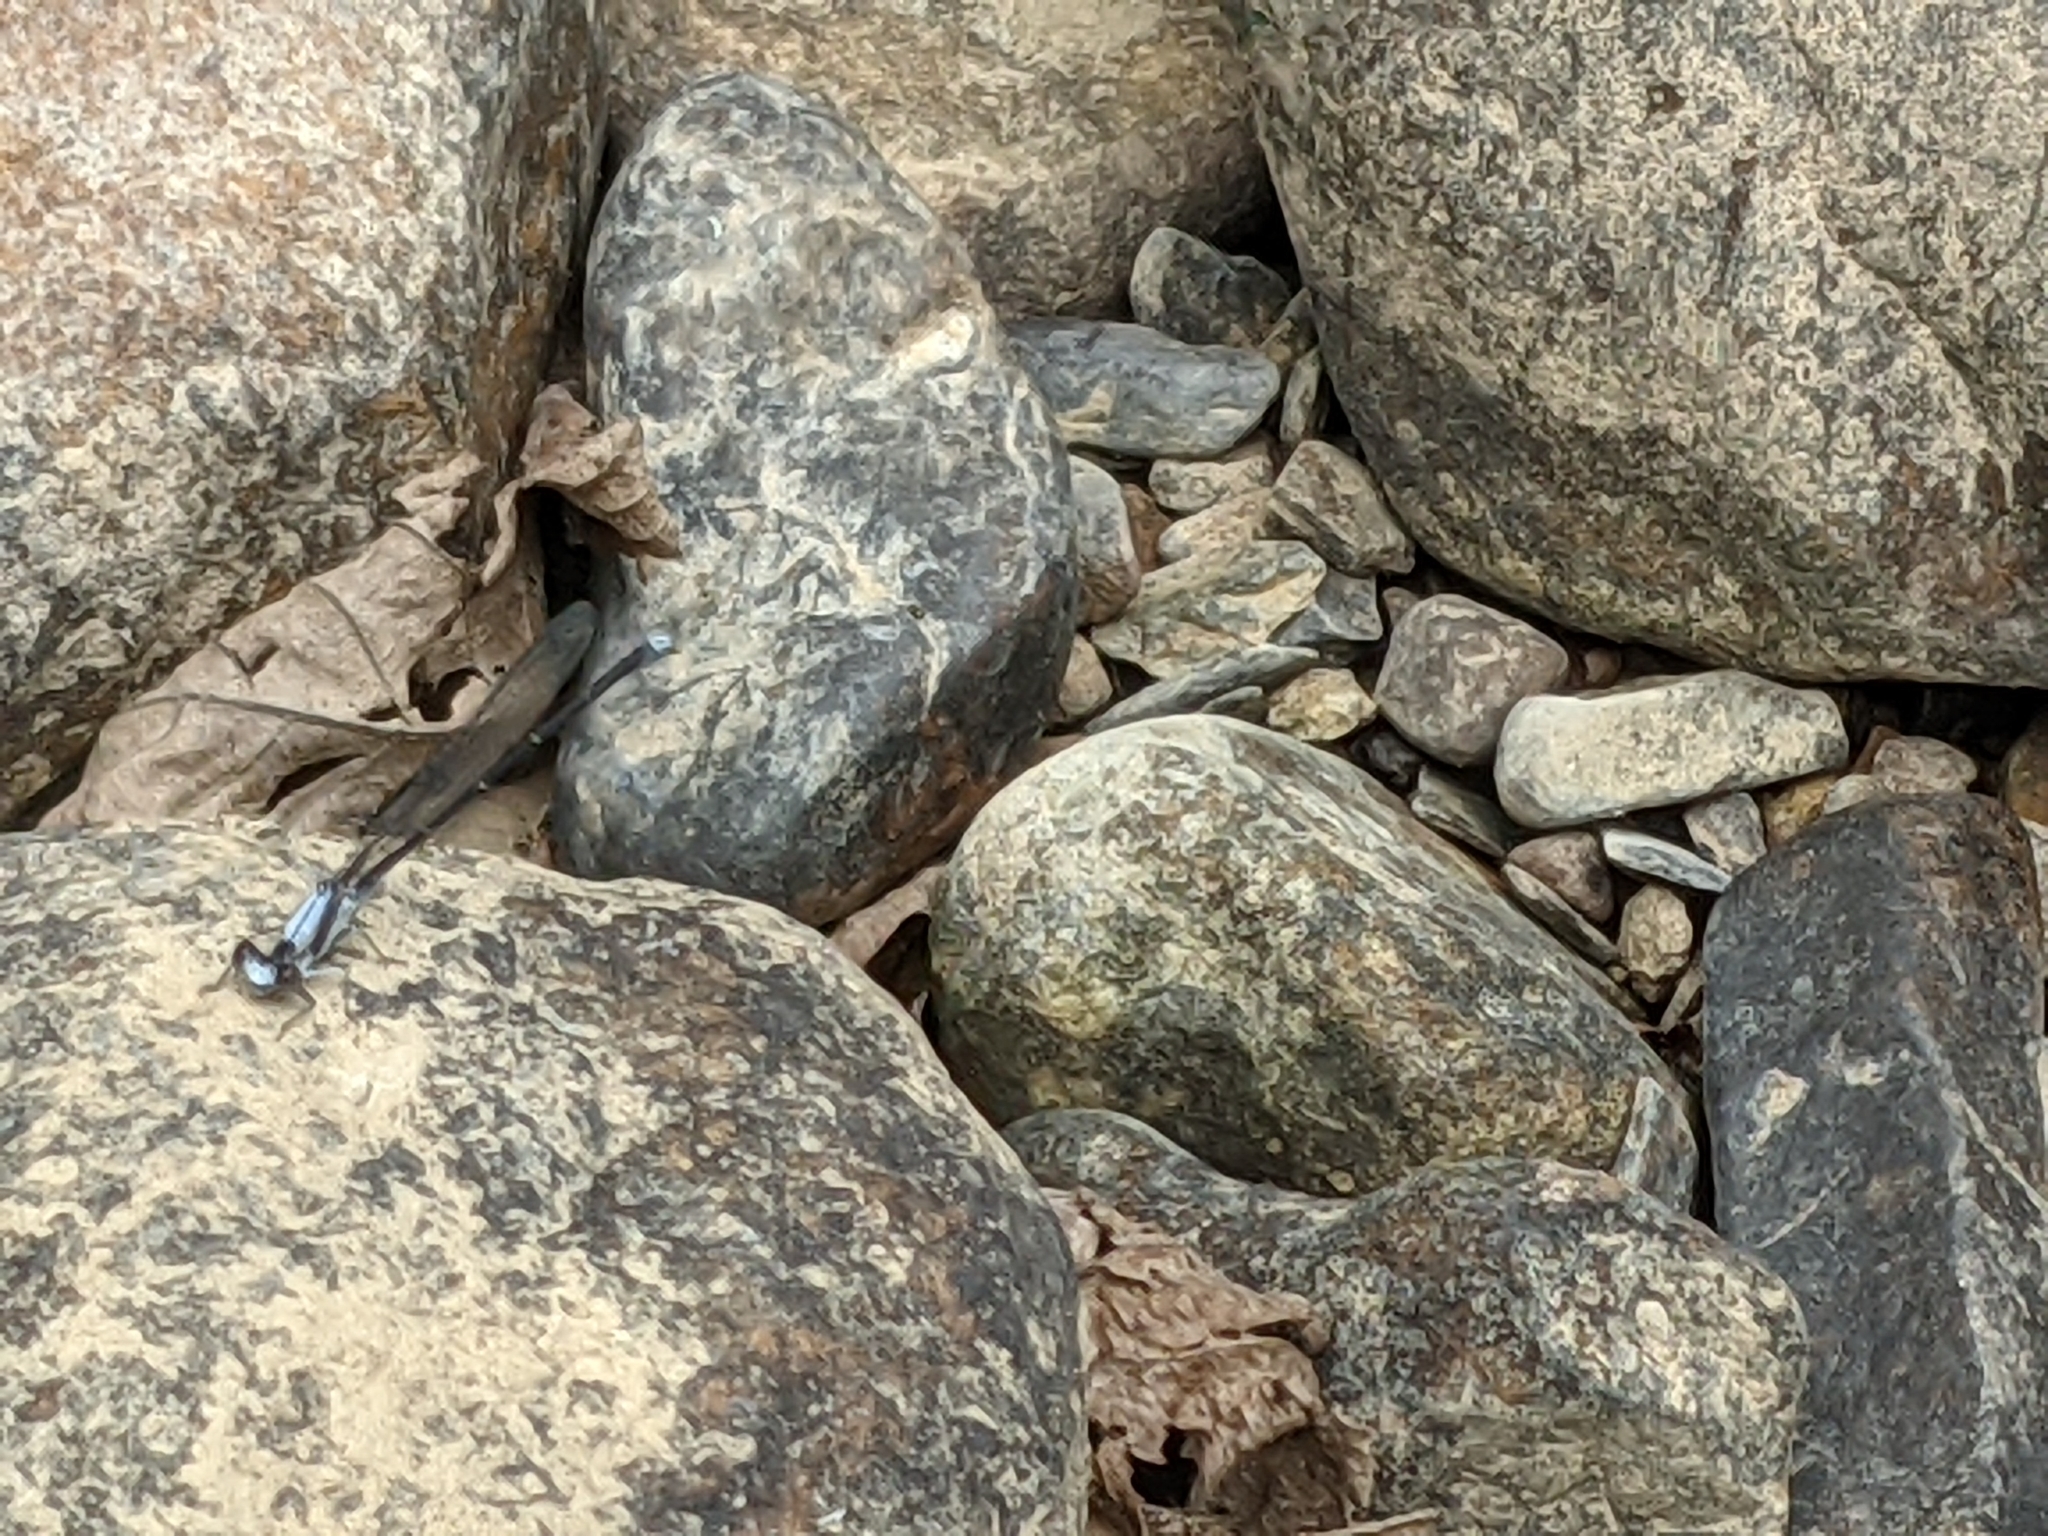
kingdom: Animalia
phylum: Arthropoda
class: Insecta
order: Odonata
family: Coenagrionidae
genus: Argia
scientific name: Argia moesta
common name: Powdered dancer
